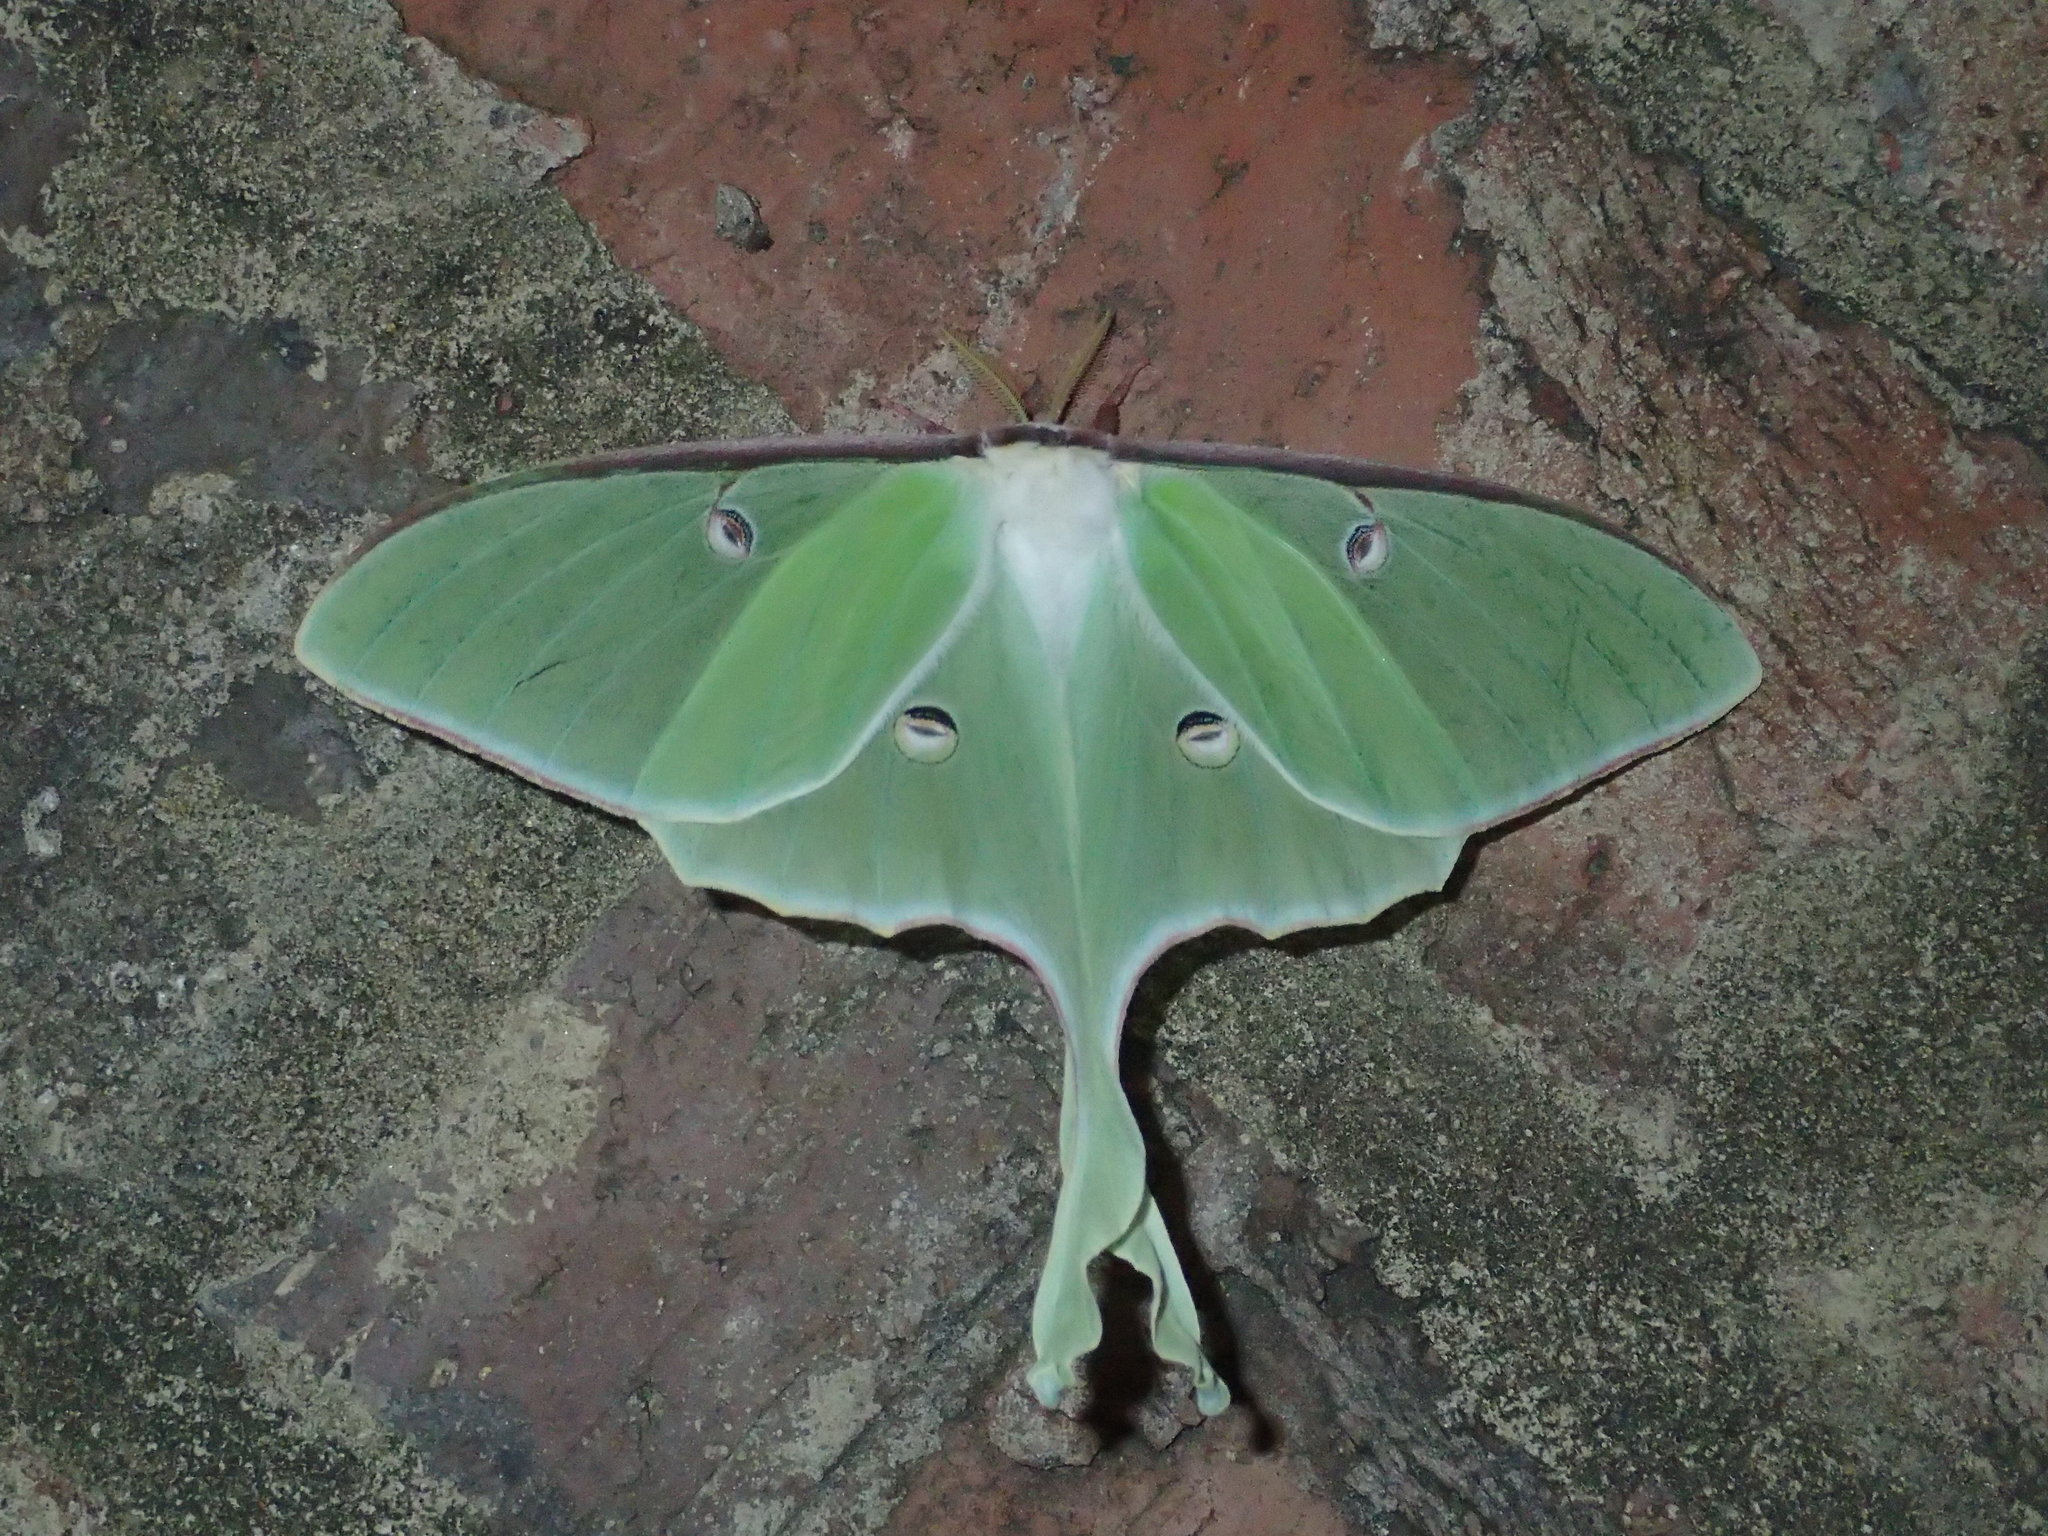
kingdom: Animalia
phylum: Arthropoda
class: Insecta
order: Lepidoptera
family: Saturniidae
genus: Actias
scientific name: Actias luna
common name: Luna moth
